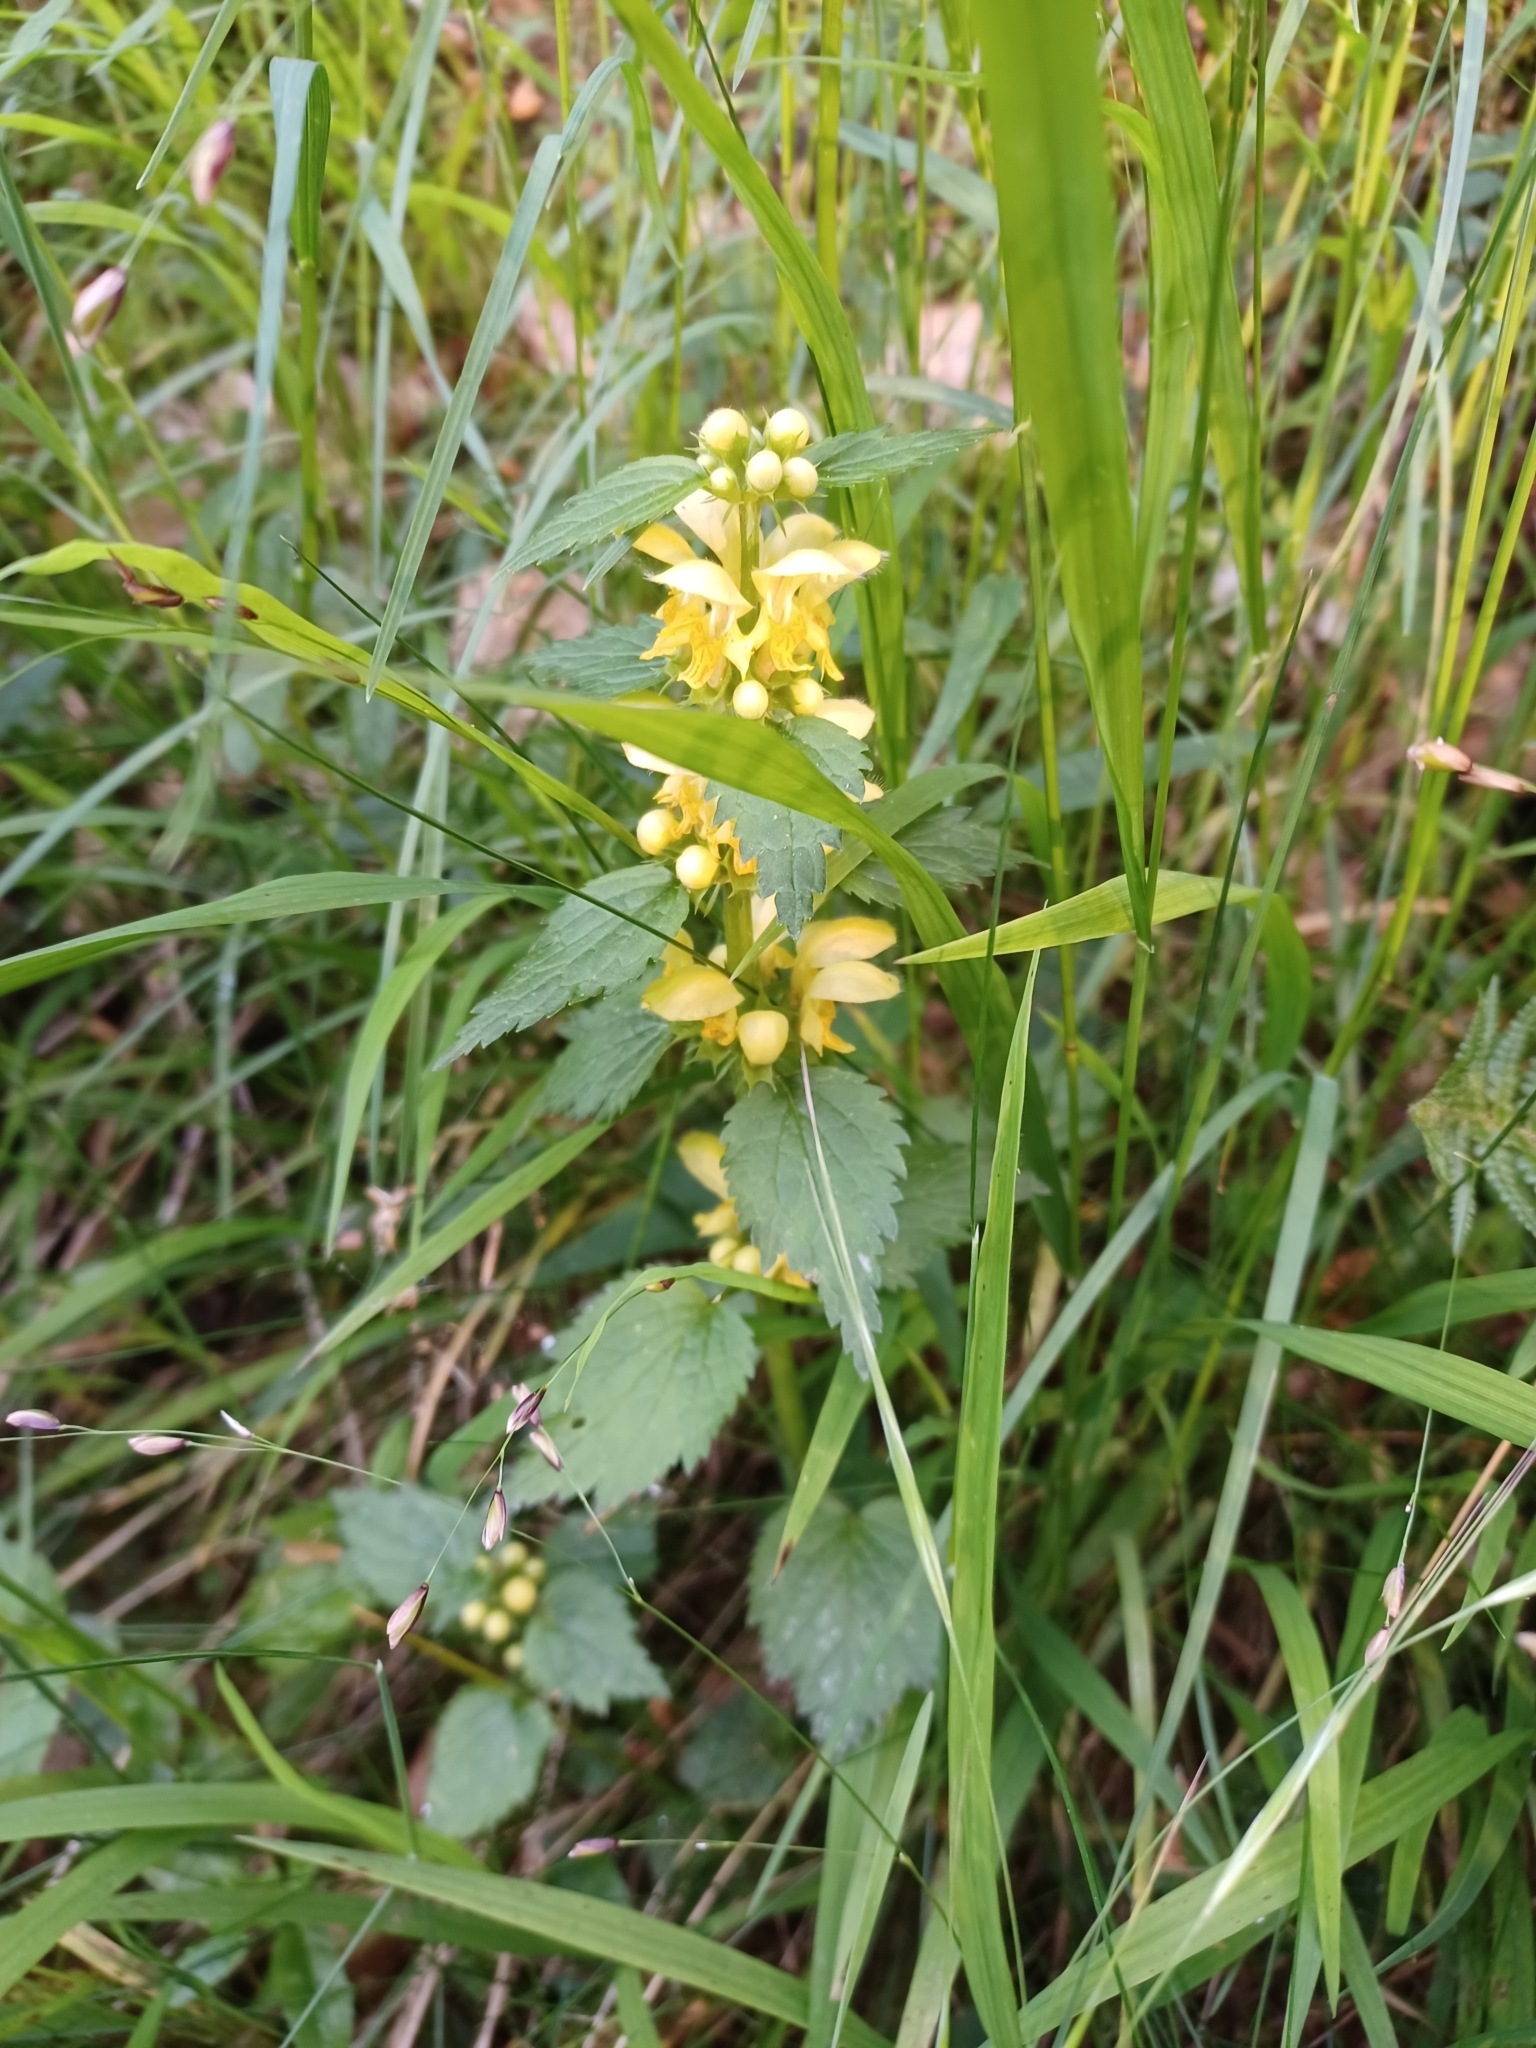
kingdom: Plantae
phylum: Tracheophyta
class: Magnoliopsida
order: Lamiales
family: Lamiaceae
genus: Lamium
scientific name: Lamium galeobdolon
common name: Yellow archangel
